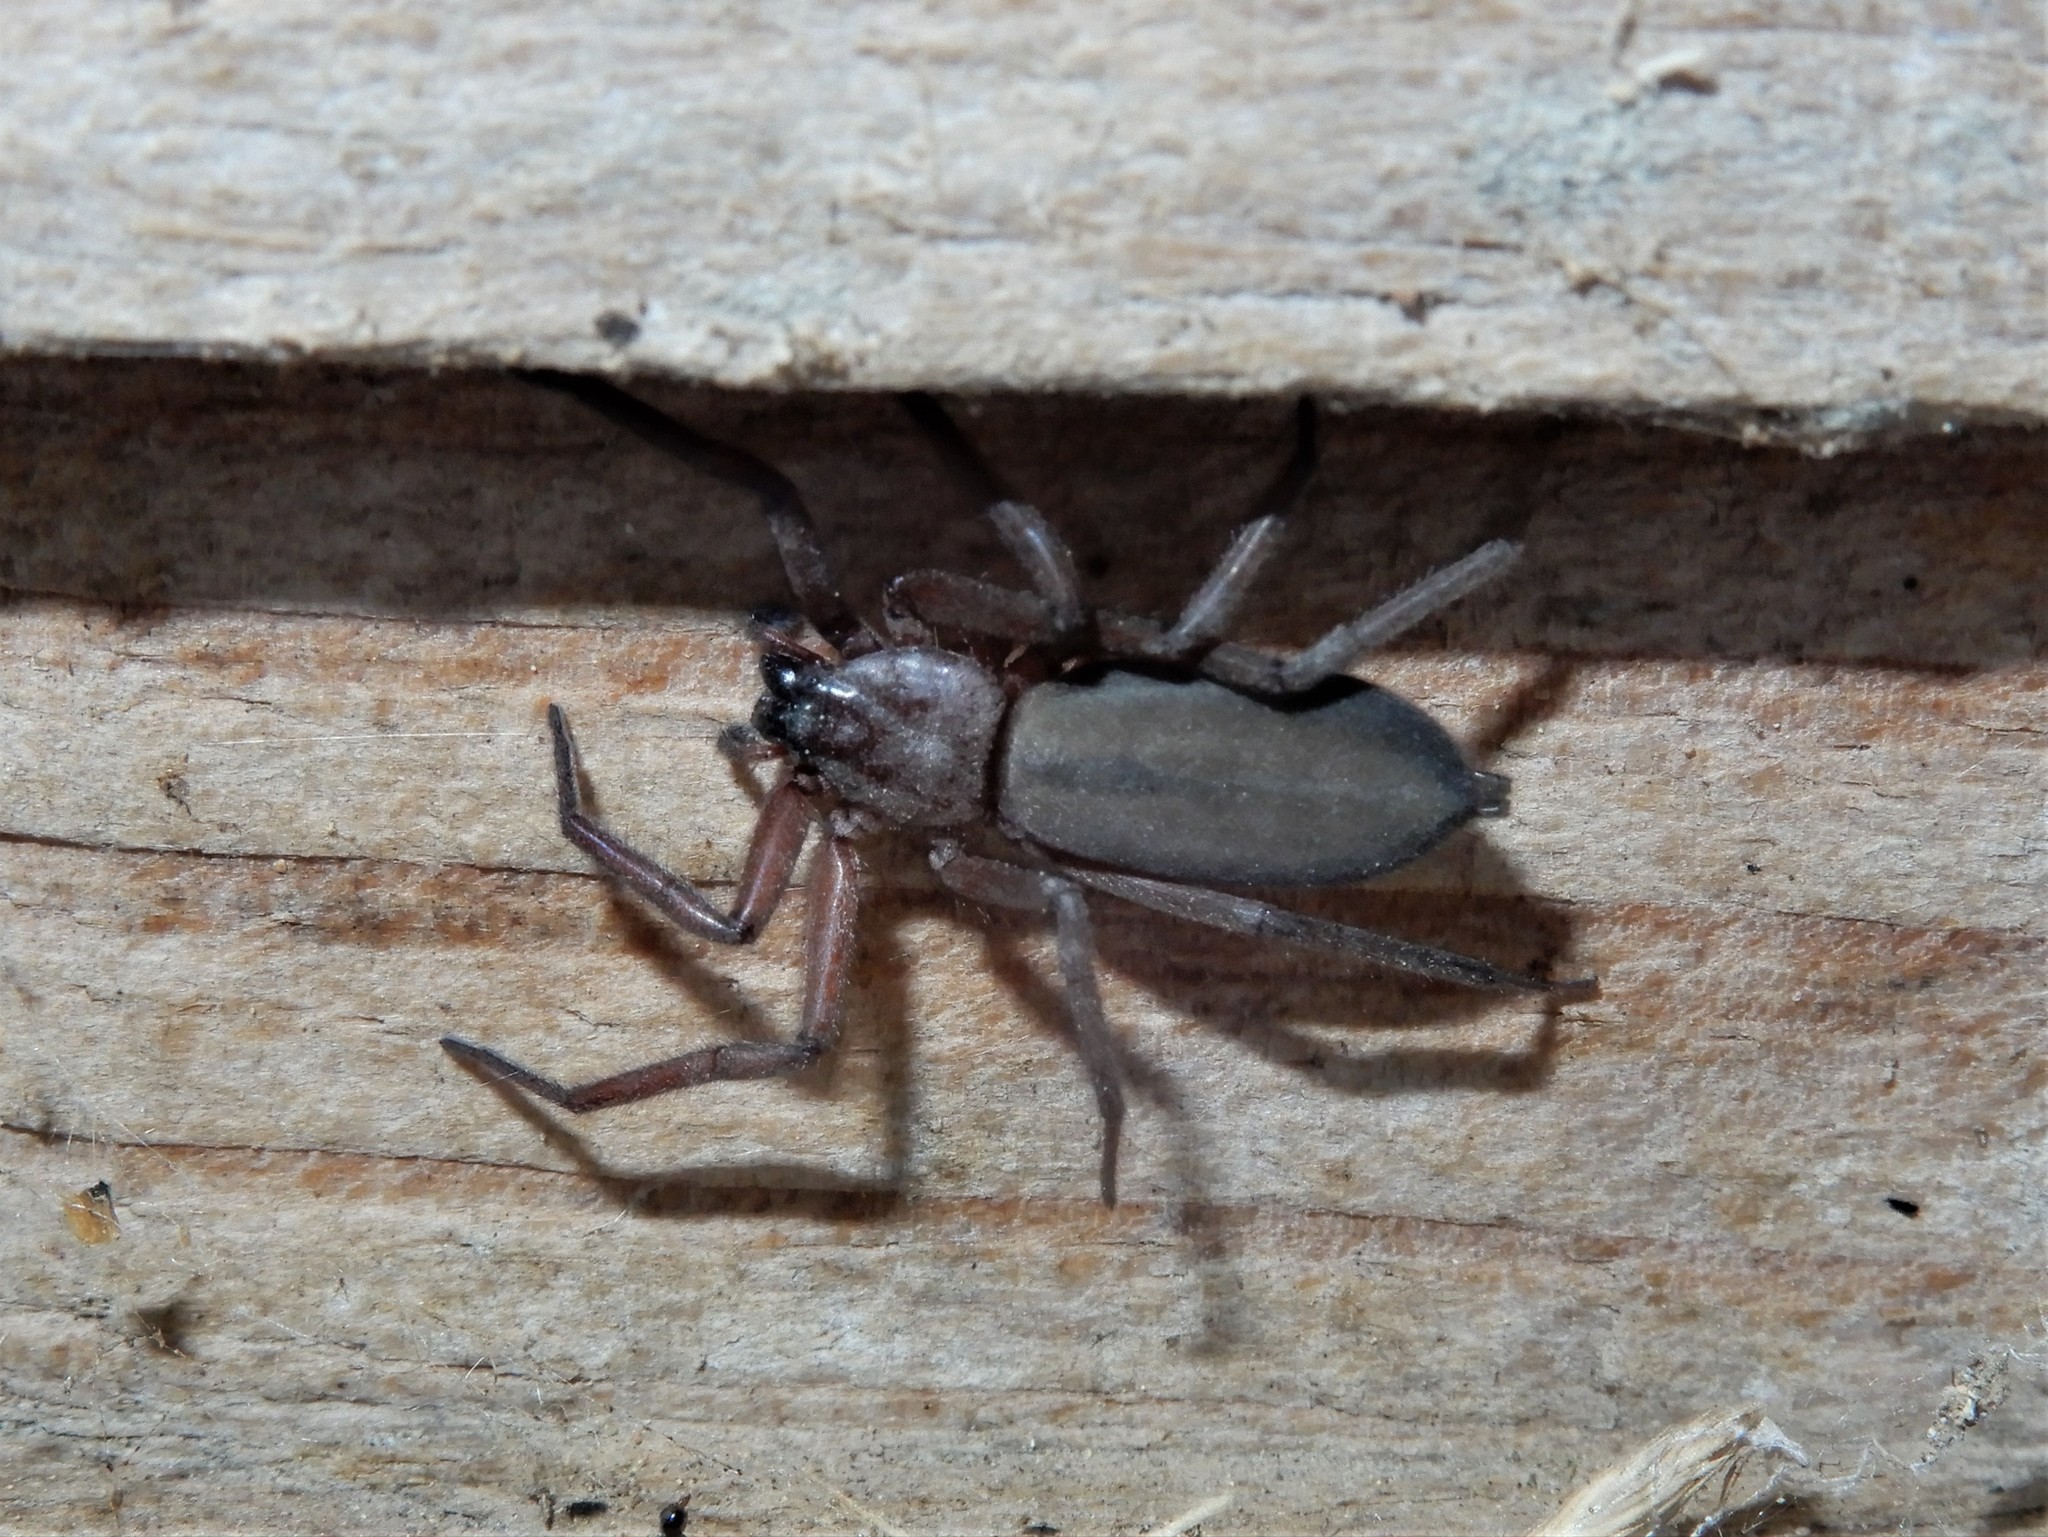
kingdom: Animalia
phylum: Arthropoda
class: Arachnida
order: Araneae
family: Trochanteriidae
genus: Hemicloea
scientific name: Hemicloea rogenhoferi
